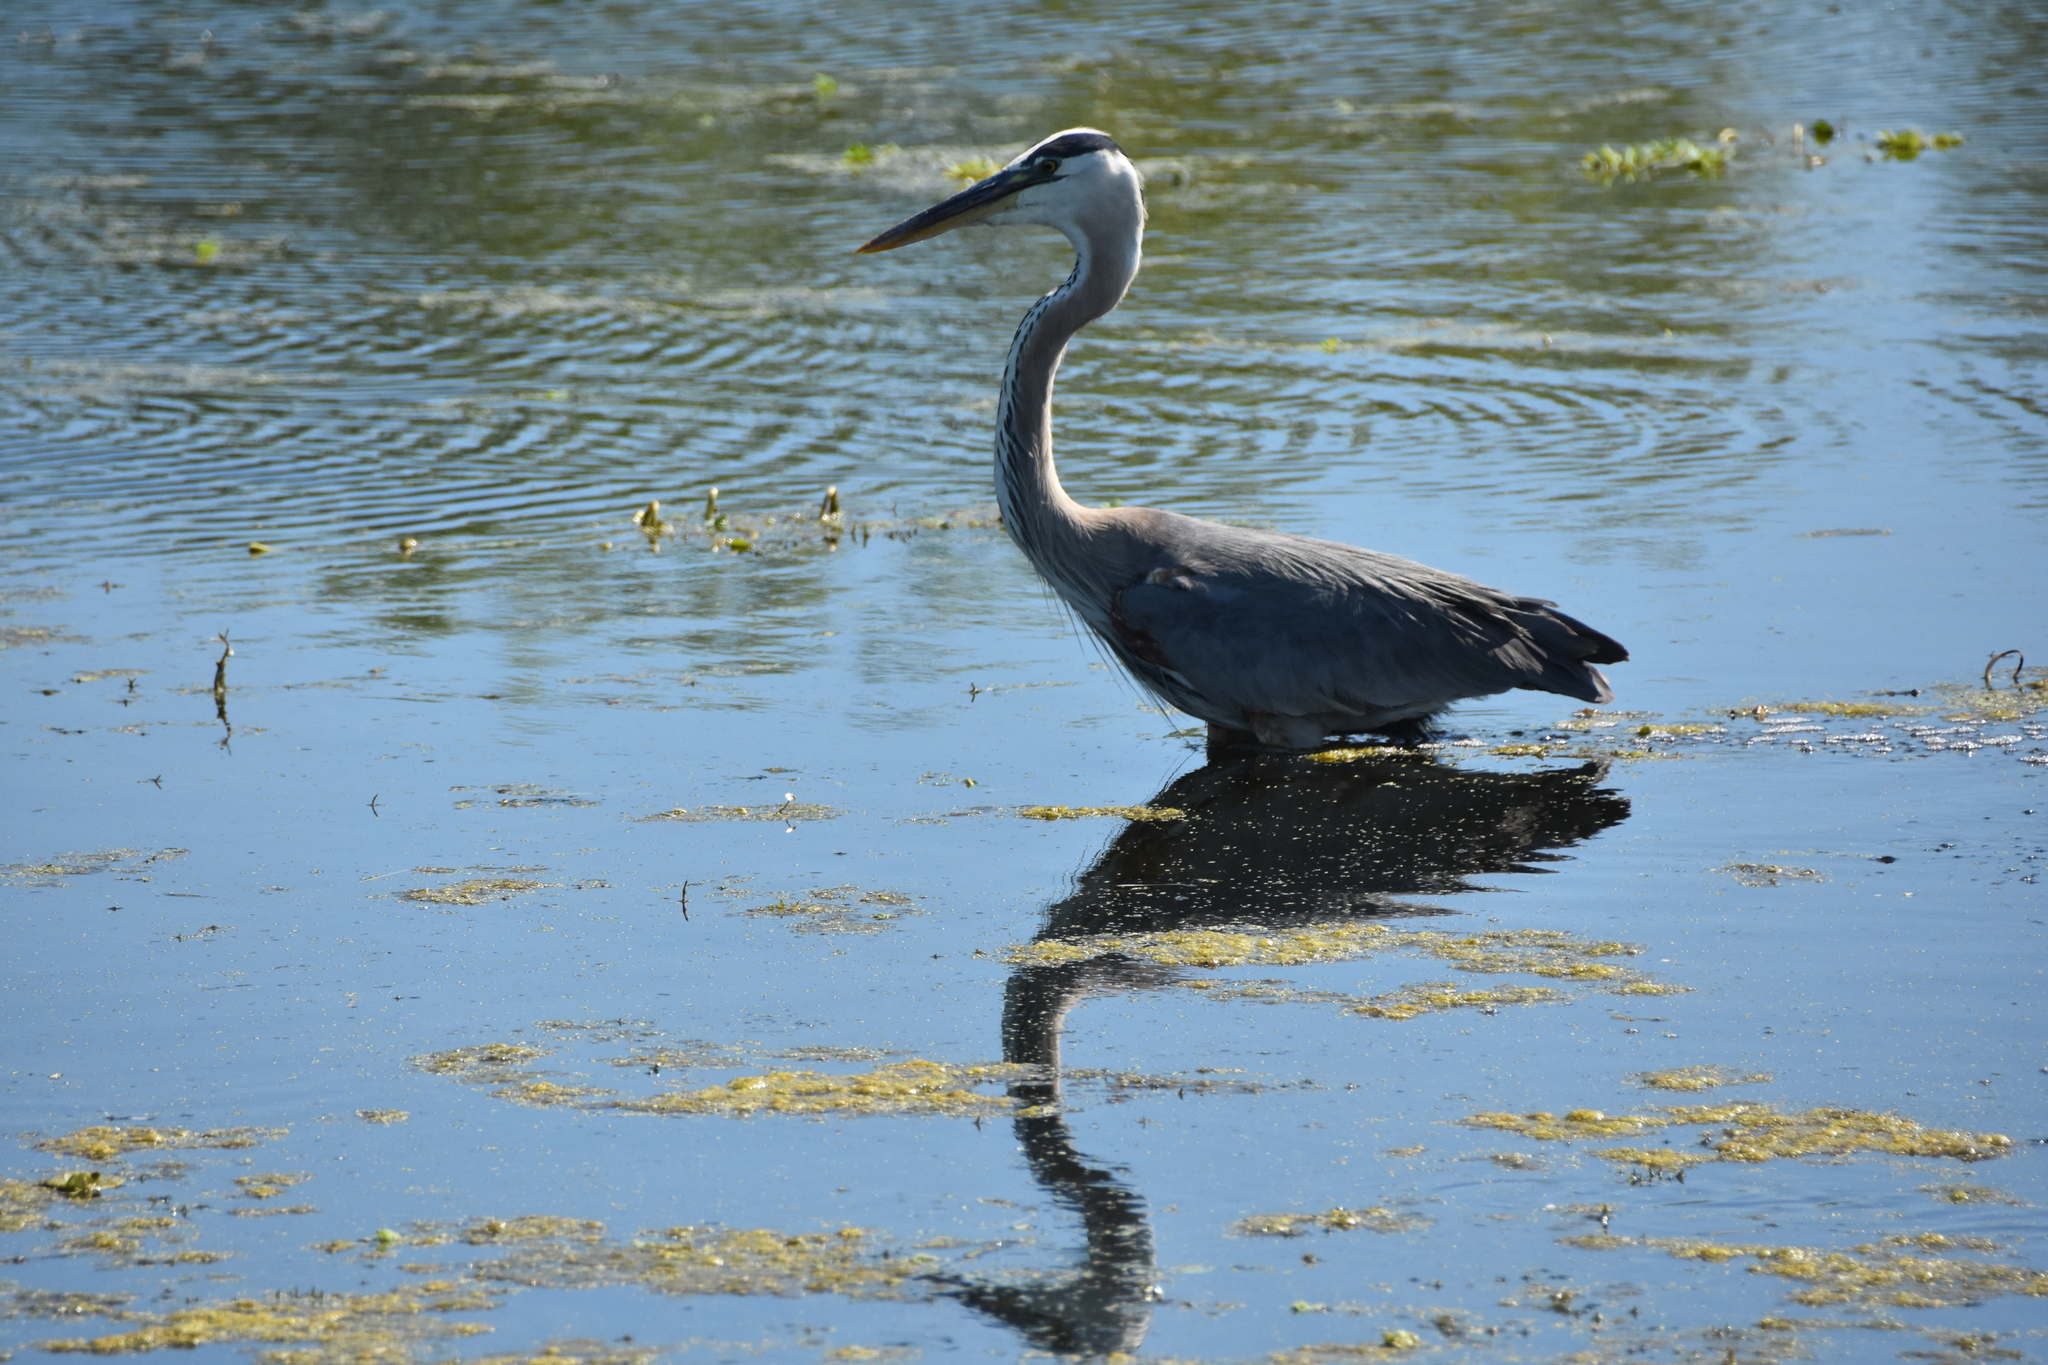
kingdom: Animalia
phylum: Chordata
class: Aves
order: Pelecaniformes
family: Ardeidae
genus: Ardea
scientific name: Ardea herodias
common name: Great blue heron
